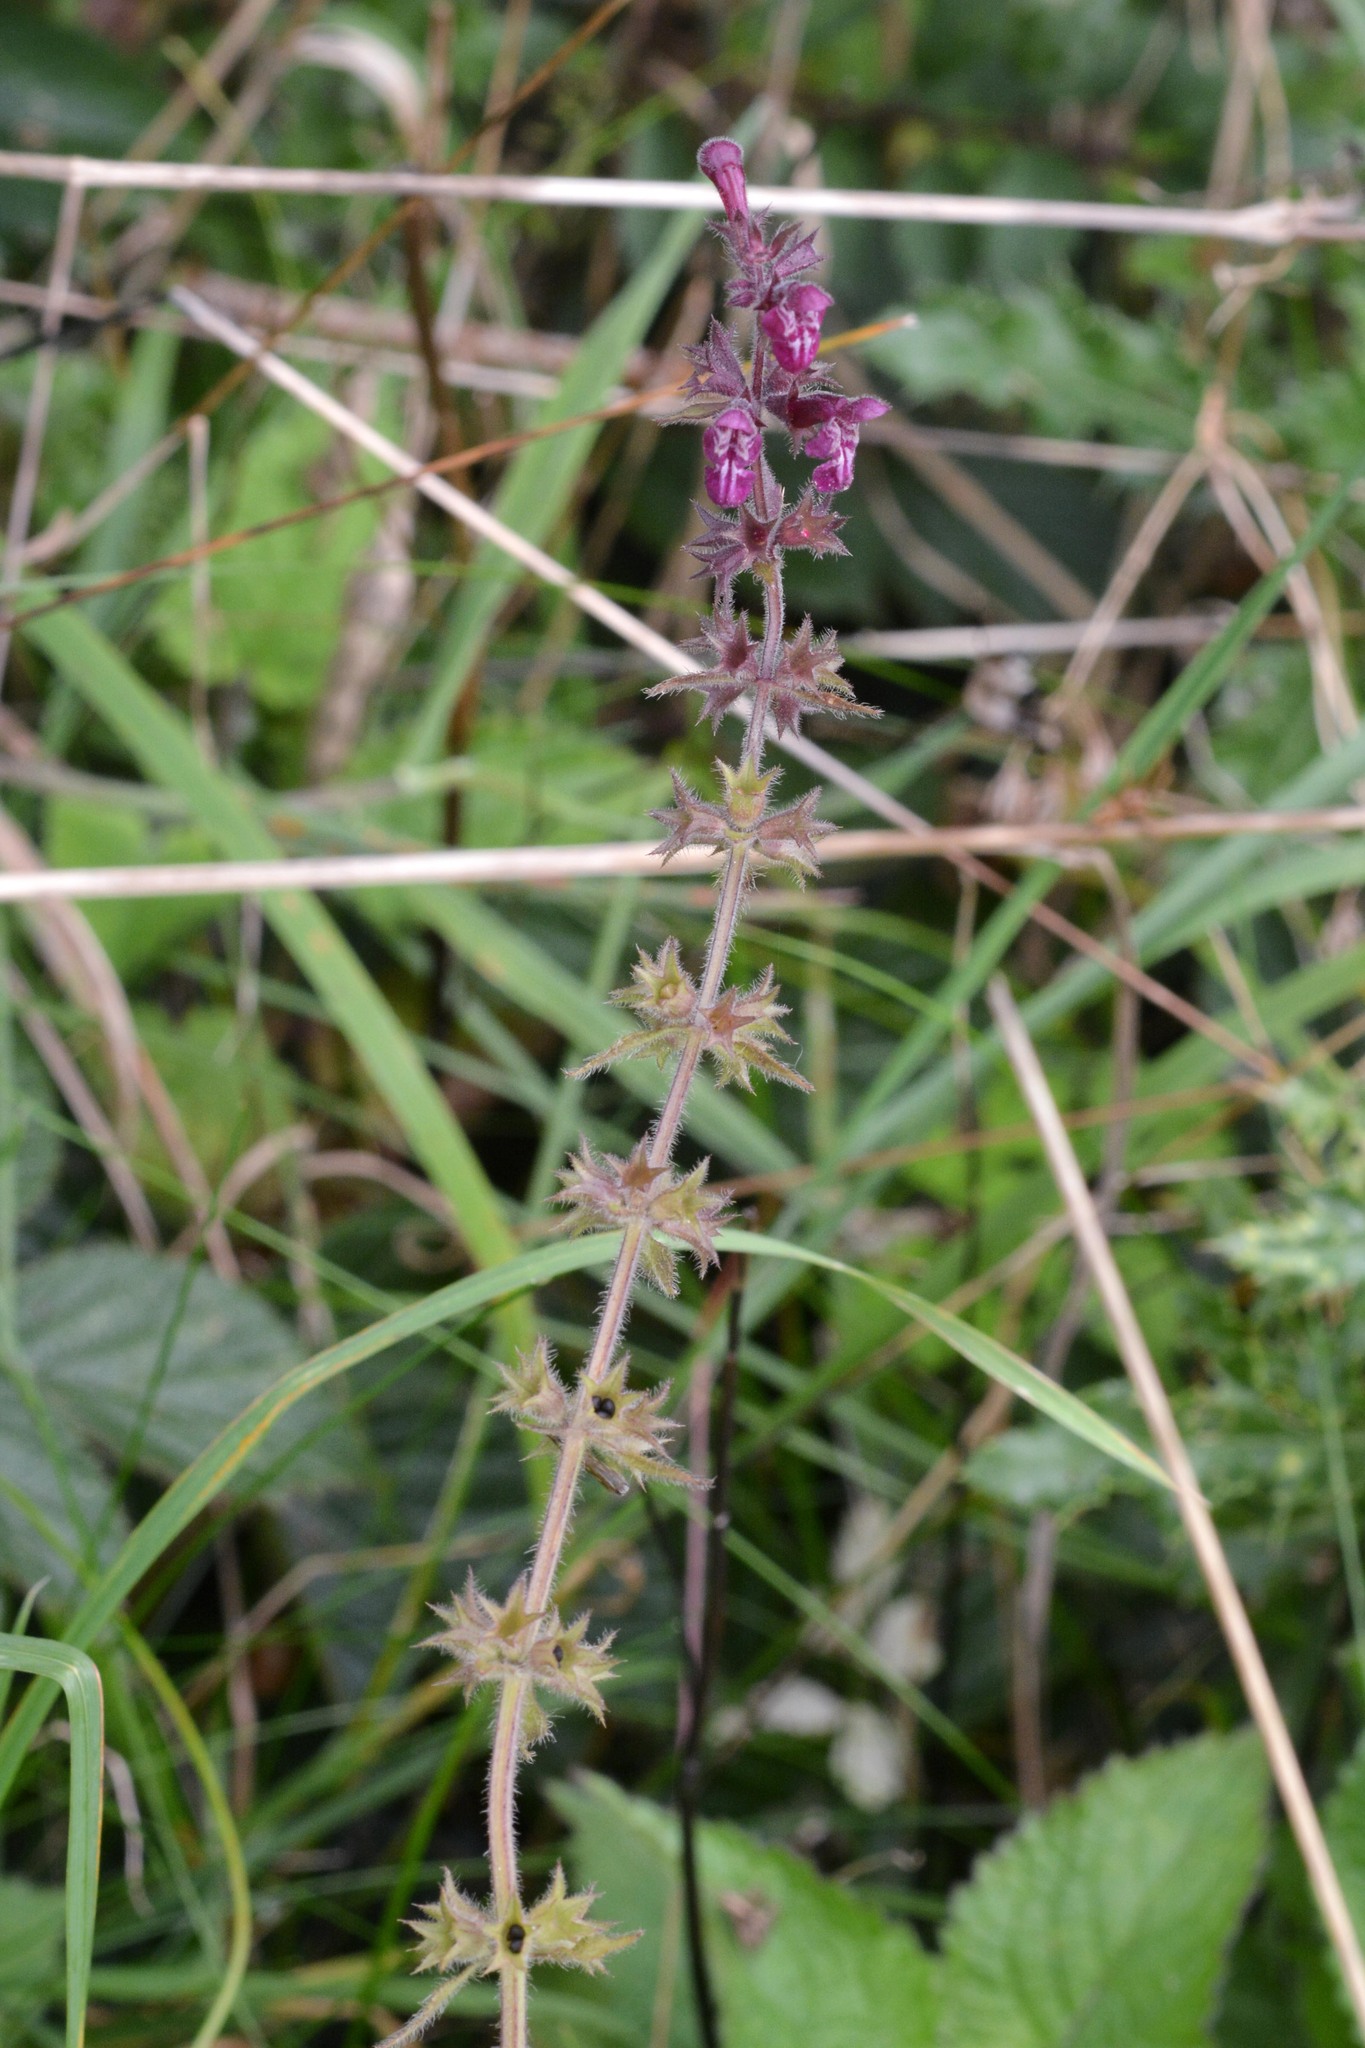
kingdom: Plantae
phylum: Tracheophyta
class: Magnoliopsida
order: Lamiales
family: Lamiaceae
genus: Stachys
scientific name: Stachys sylvatica
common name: Hedge woundwort
